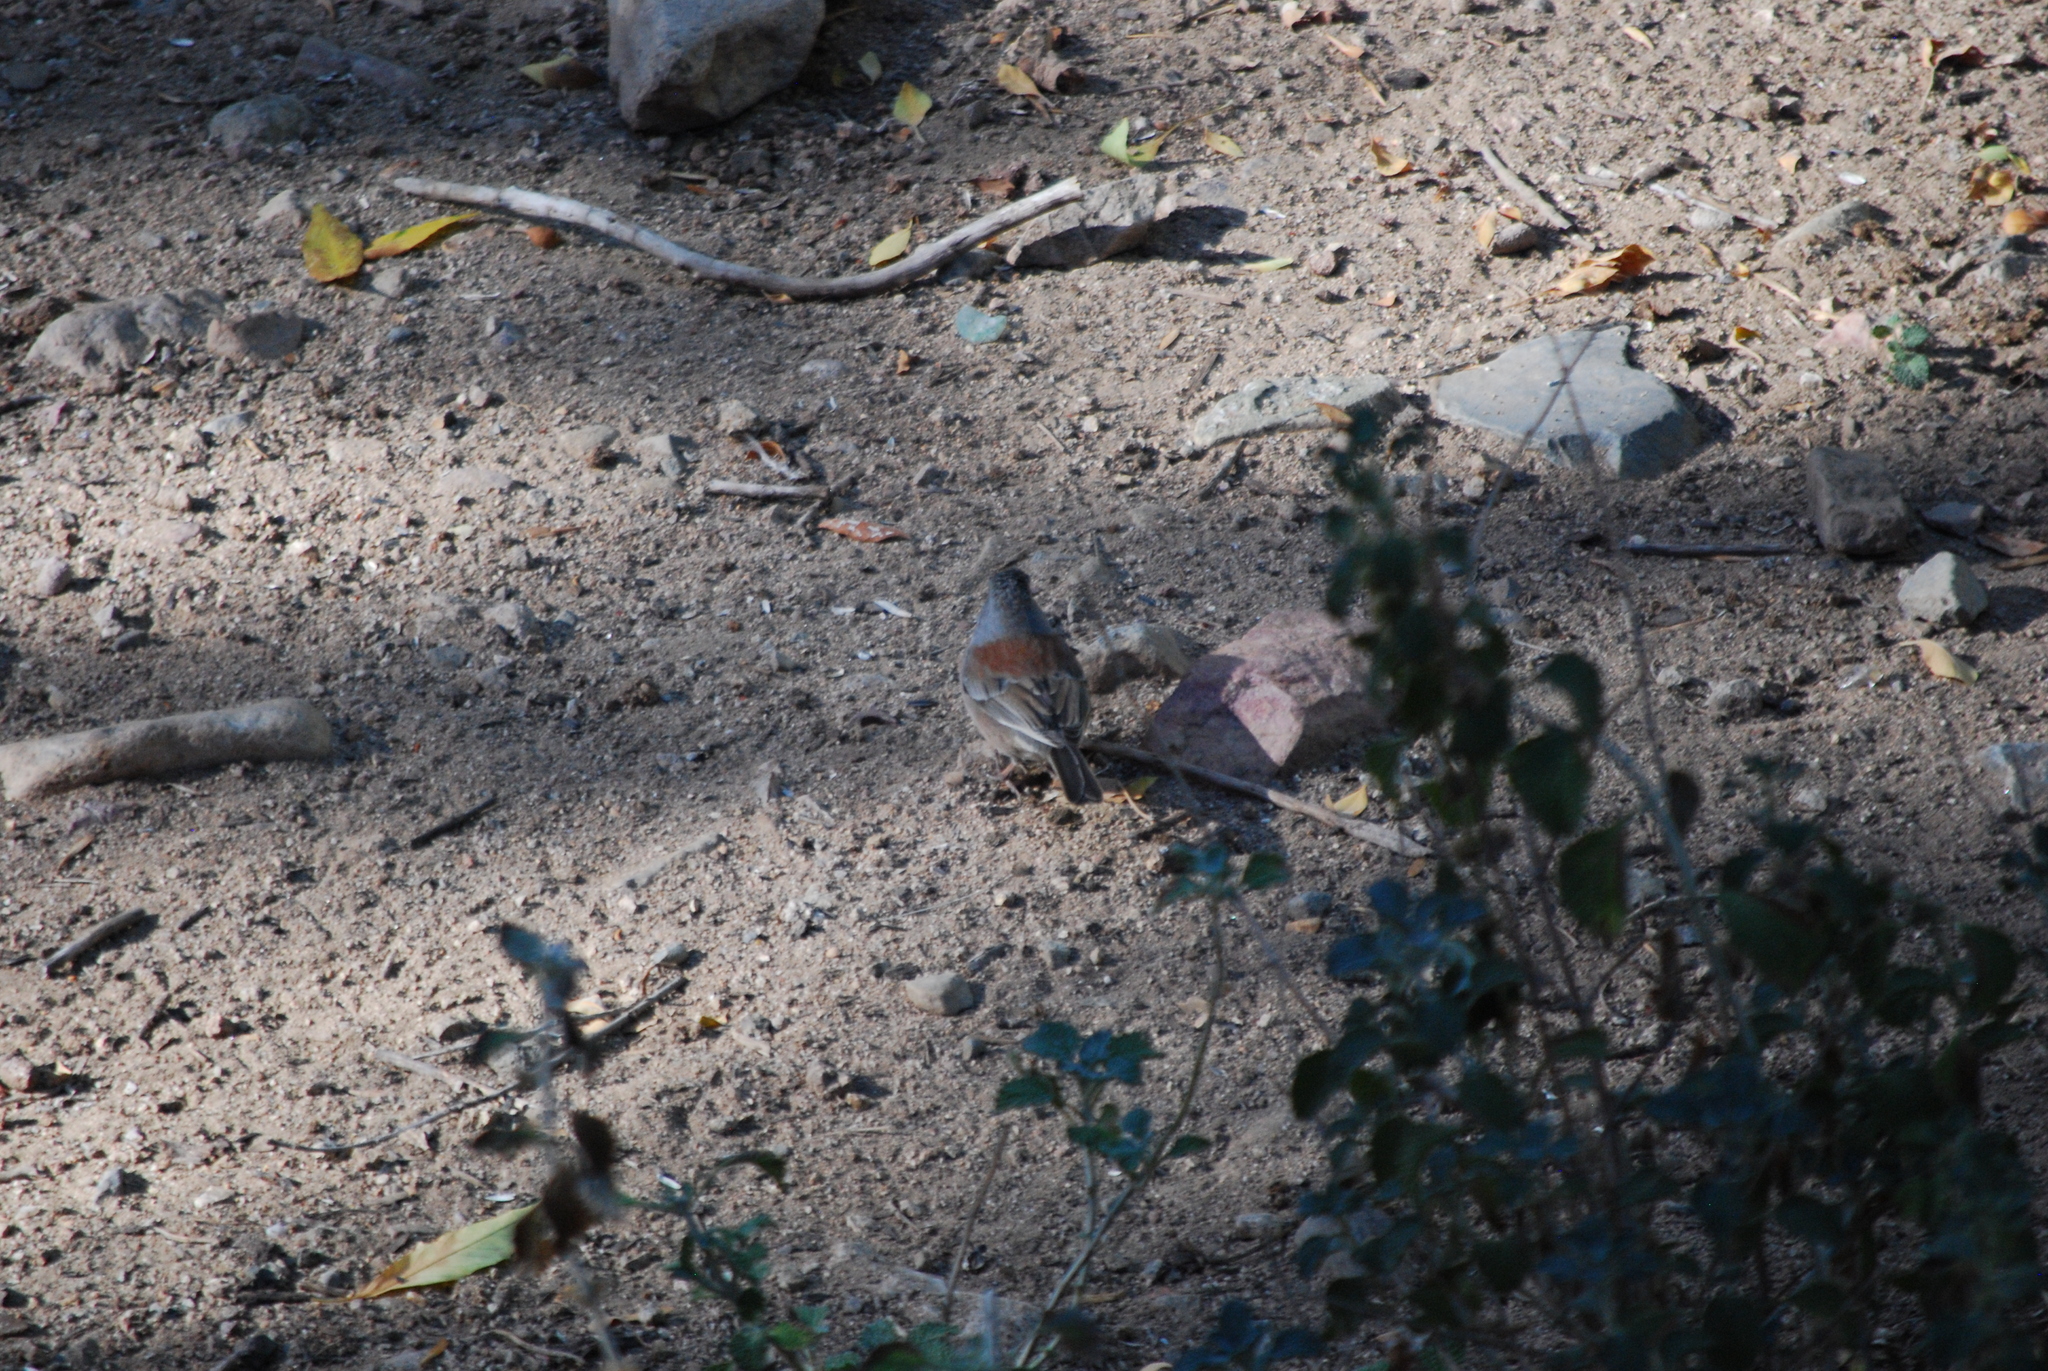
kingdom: Animalia
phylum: Chordata
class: Aves
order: Passeriformes
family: Passerellidae
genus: Junco
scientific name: Junco phaeonotus
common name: Yellow-eyed junco
